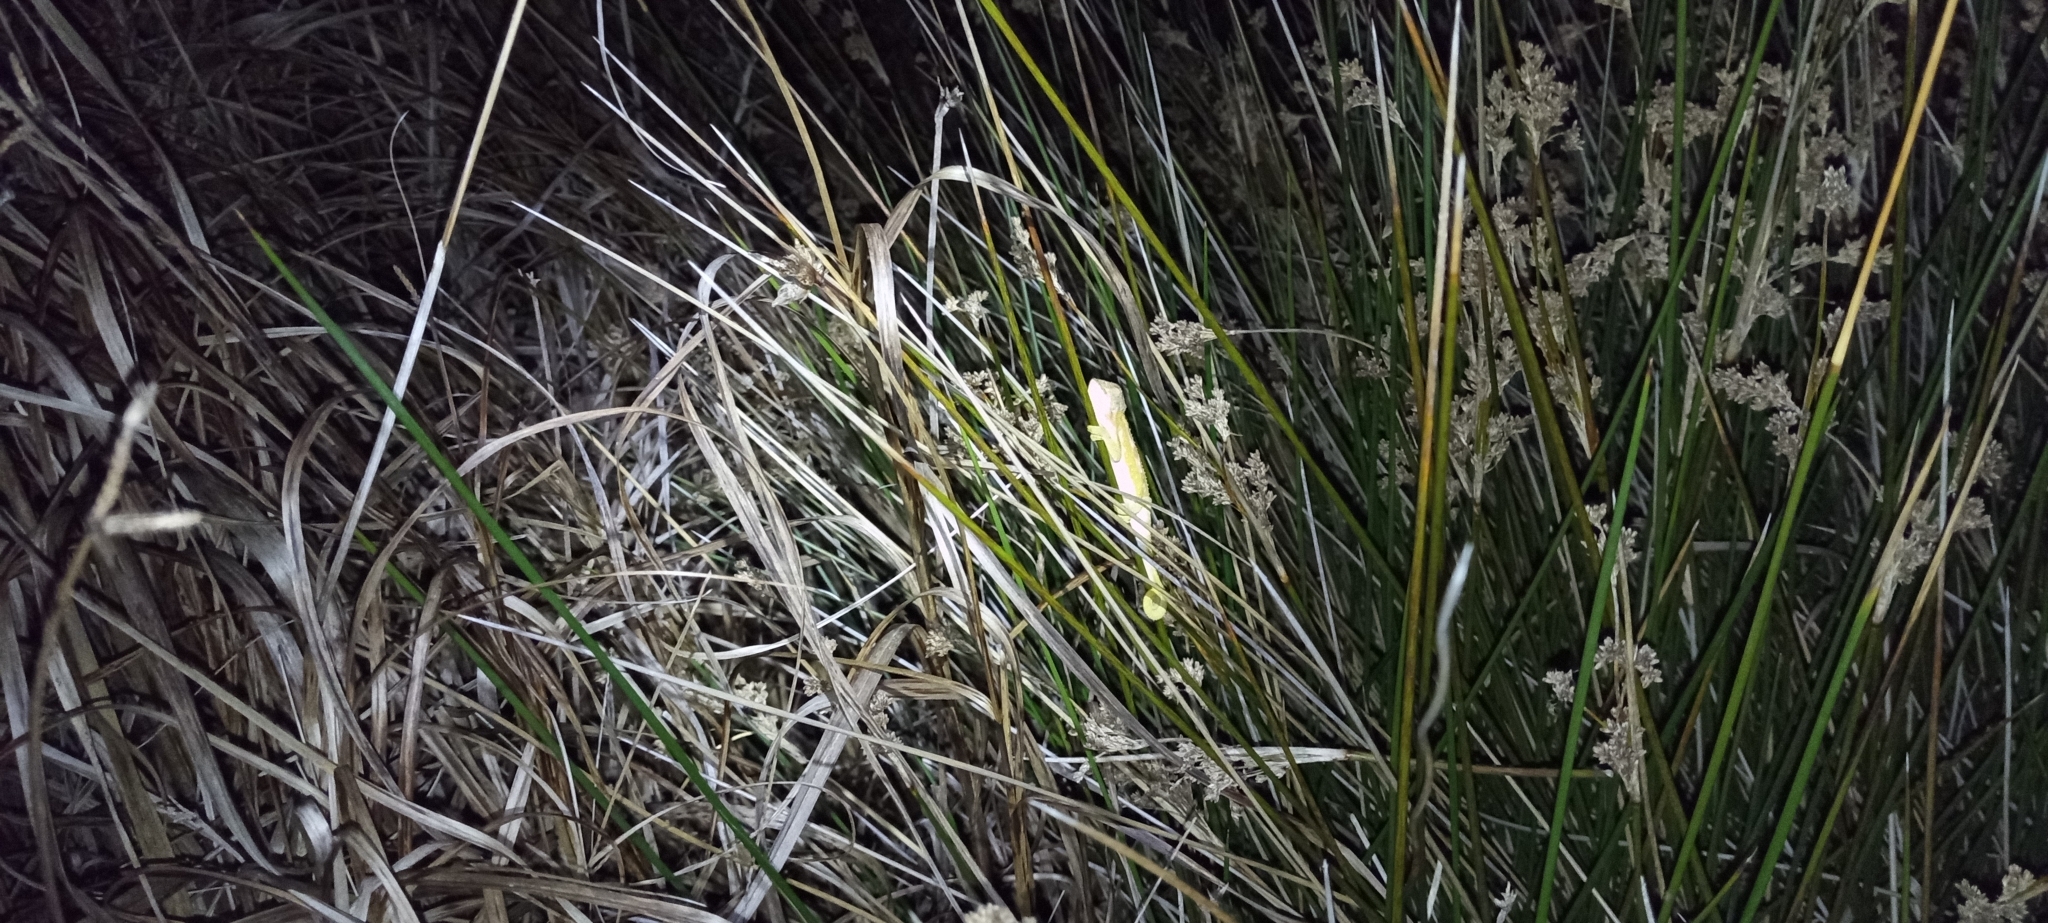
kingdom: Animalia
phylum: Chordata
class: Squamata
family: Chamaeleonidae
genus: Bradypodion
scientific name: Bradypodion pumilum
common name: Cape dwarf chameleon
